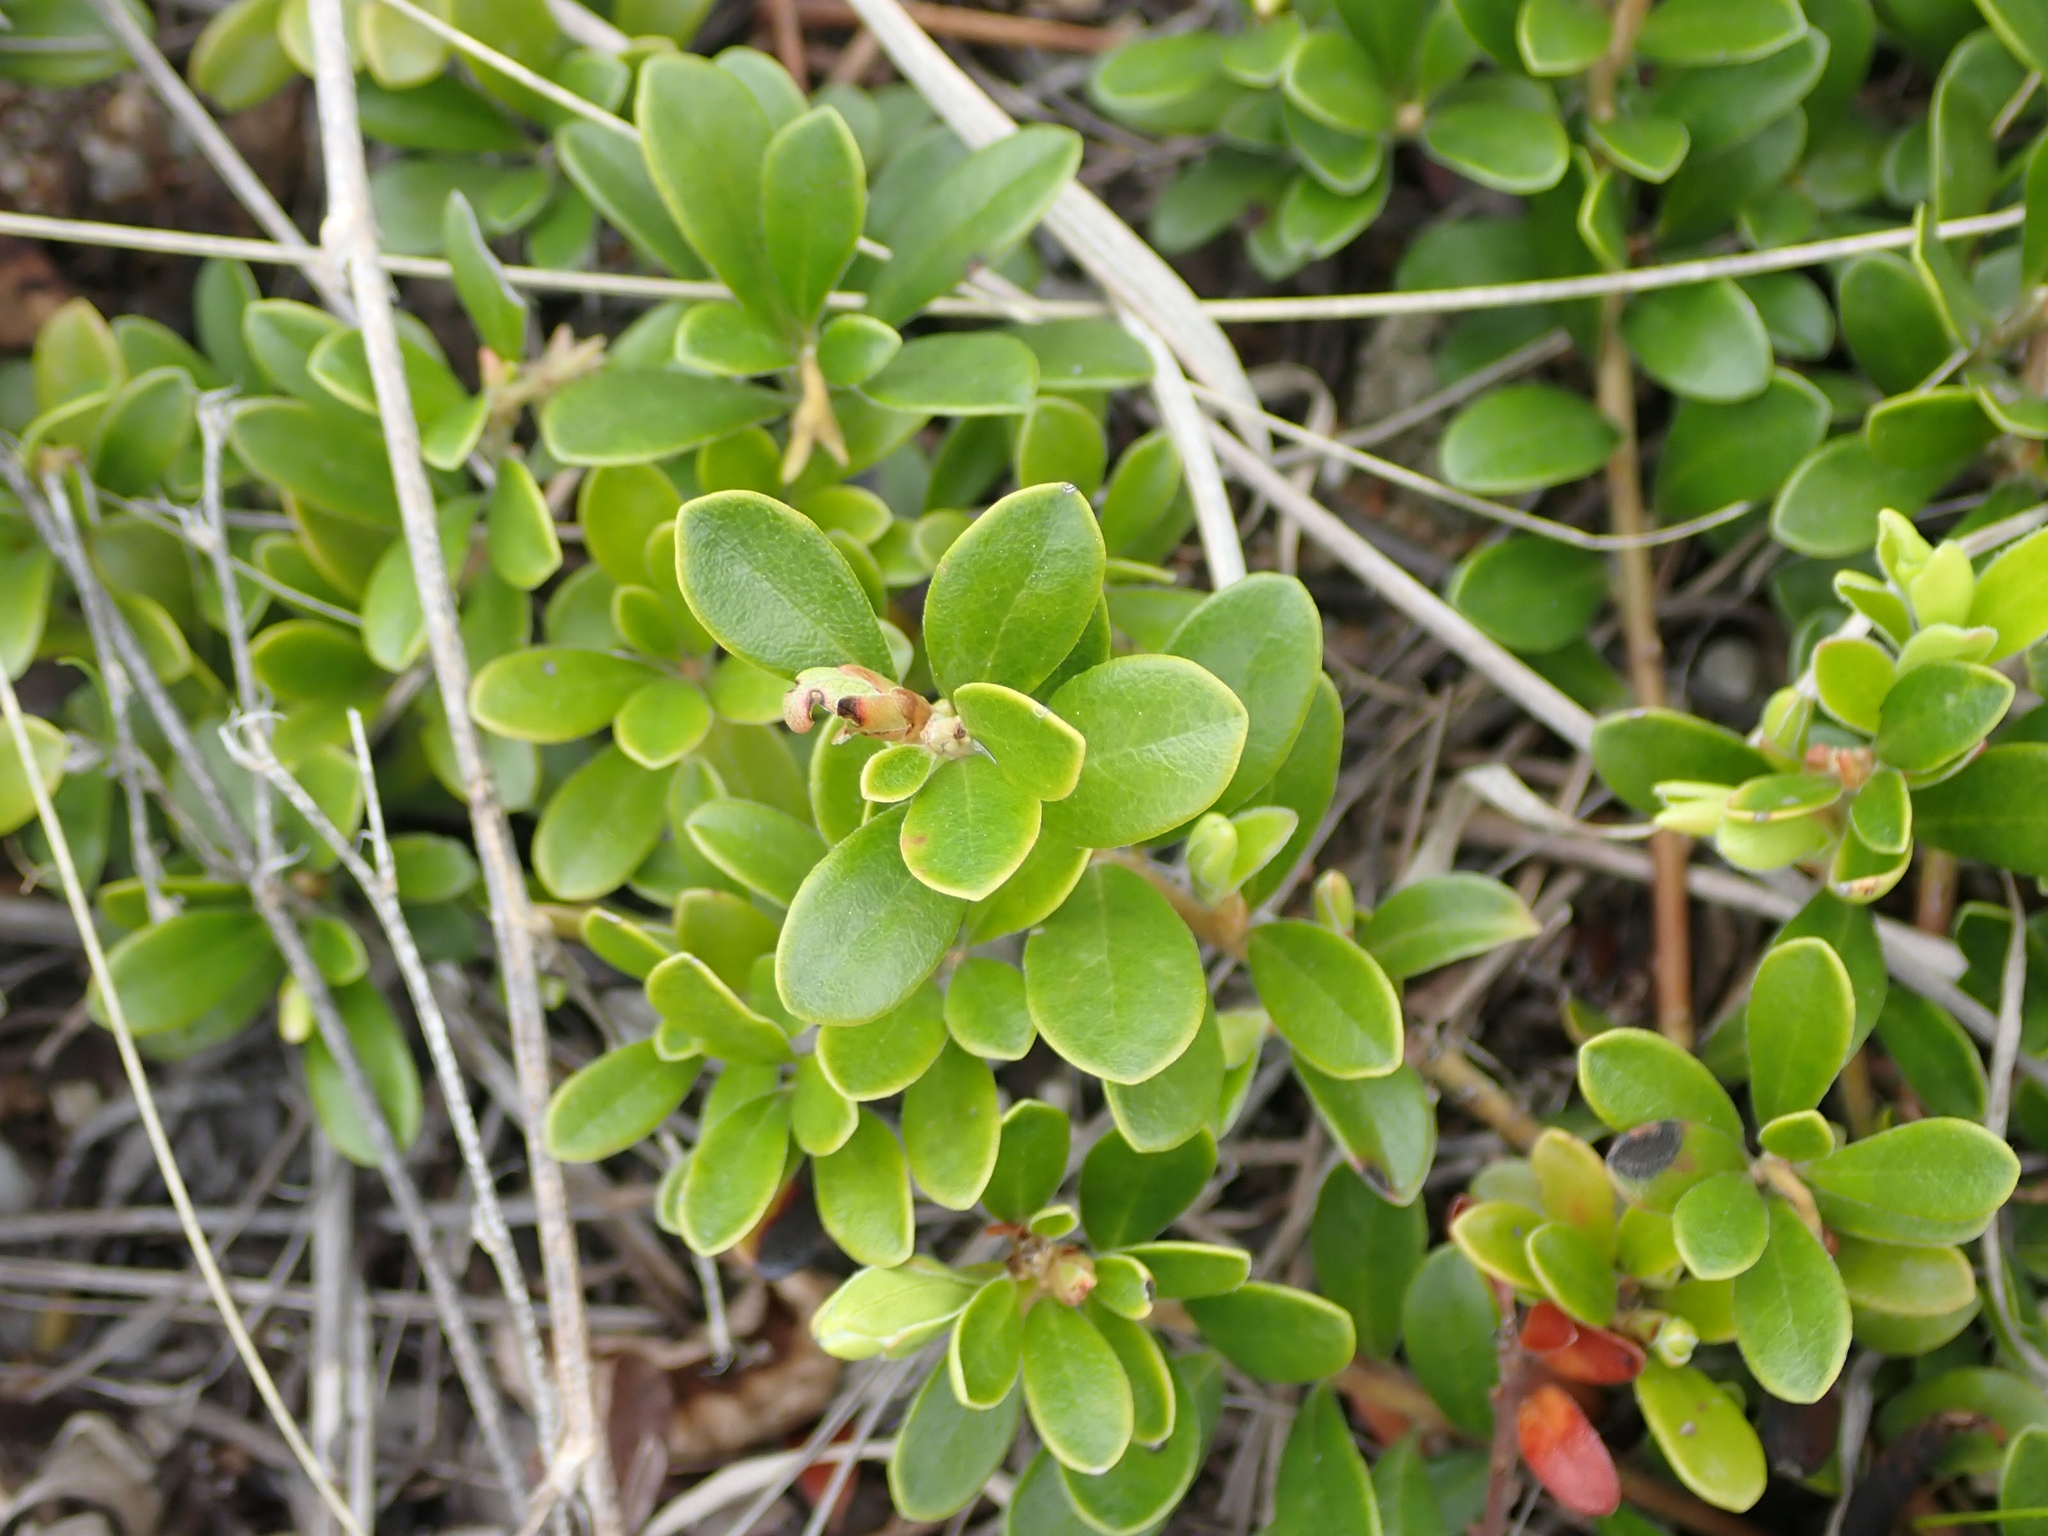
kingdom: Plantae
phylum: Tracheophyta
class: Magnoliopsida
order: Ericales
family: Ericaceae
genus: Arctostaphylos
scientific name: Arctostaphylos uva-ursi
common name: Bearberry
